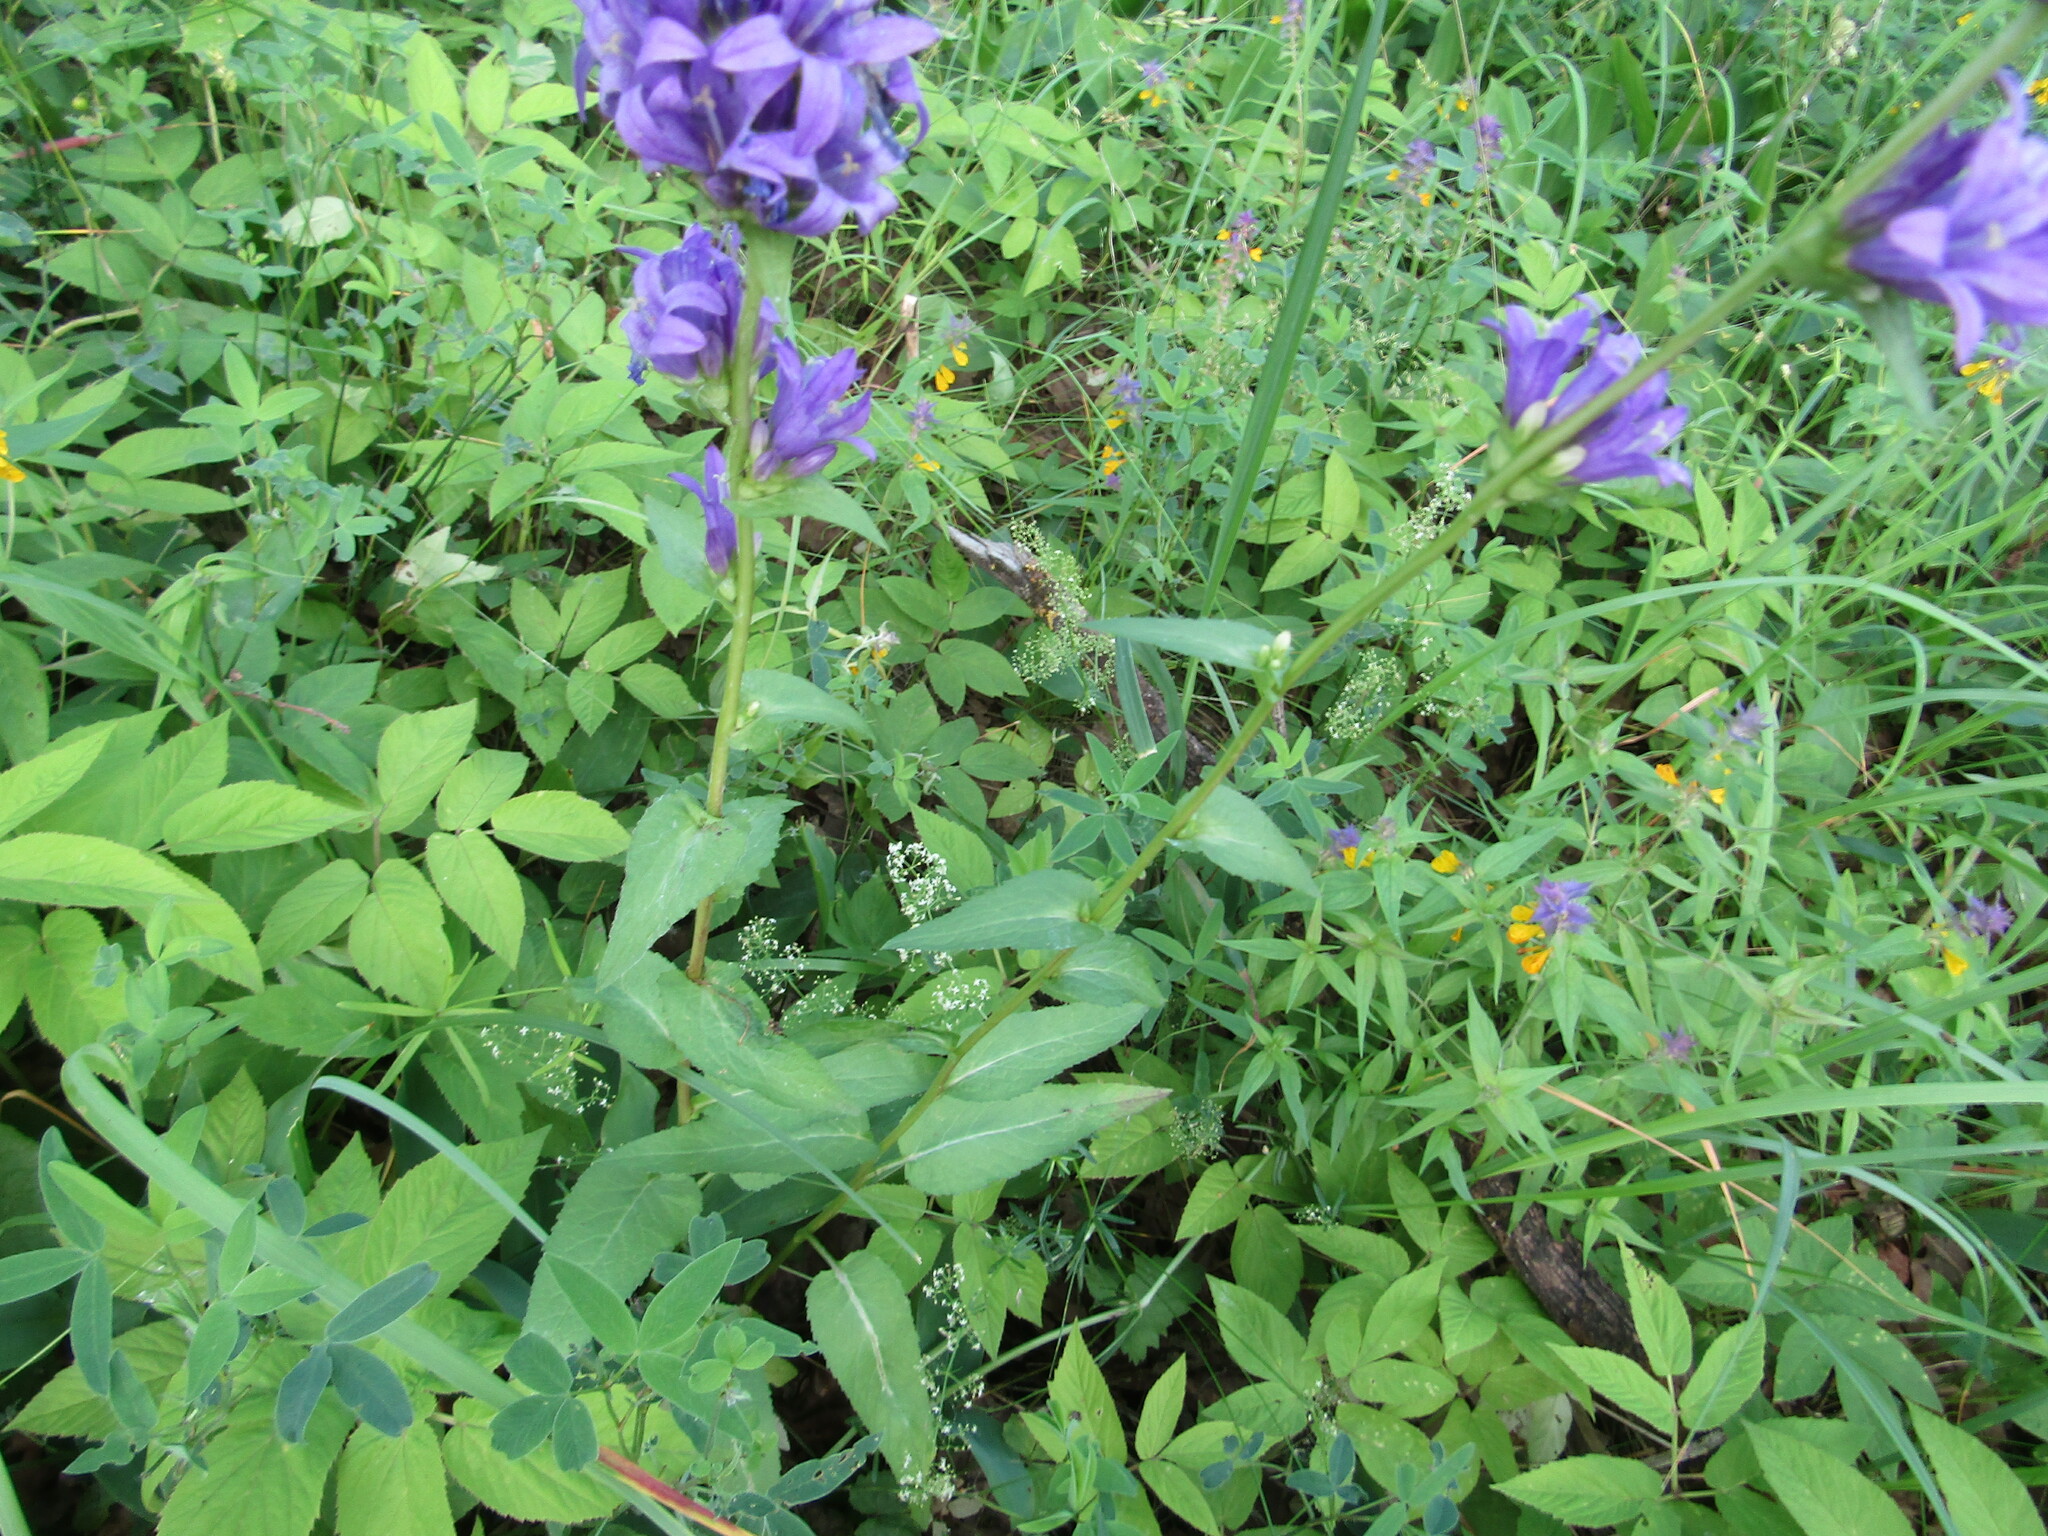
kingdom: Plantae
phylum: Tracheophyta
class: Magnoliopsida
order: Asterales
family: Campanulaceae
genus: Campanula
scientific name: Campanula glomerata
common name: Clustered bellflower
